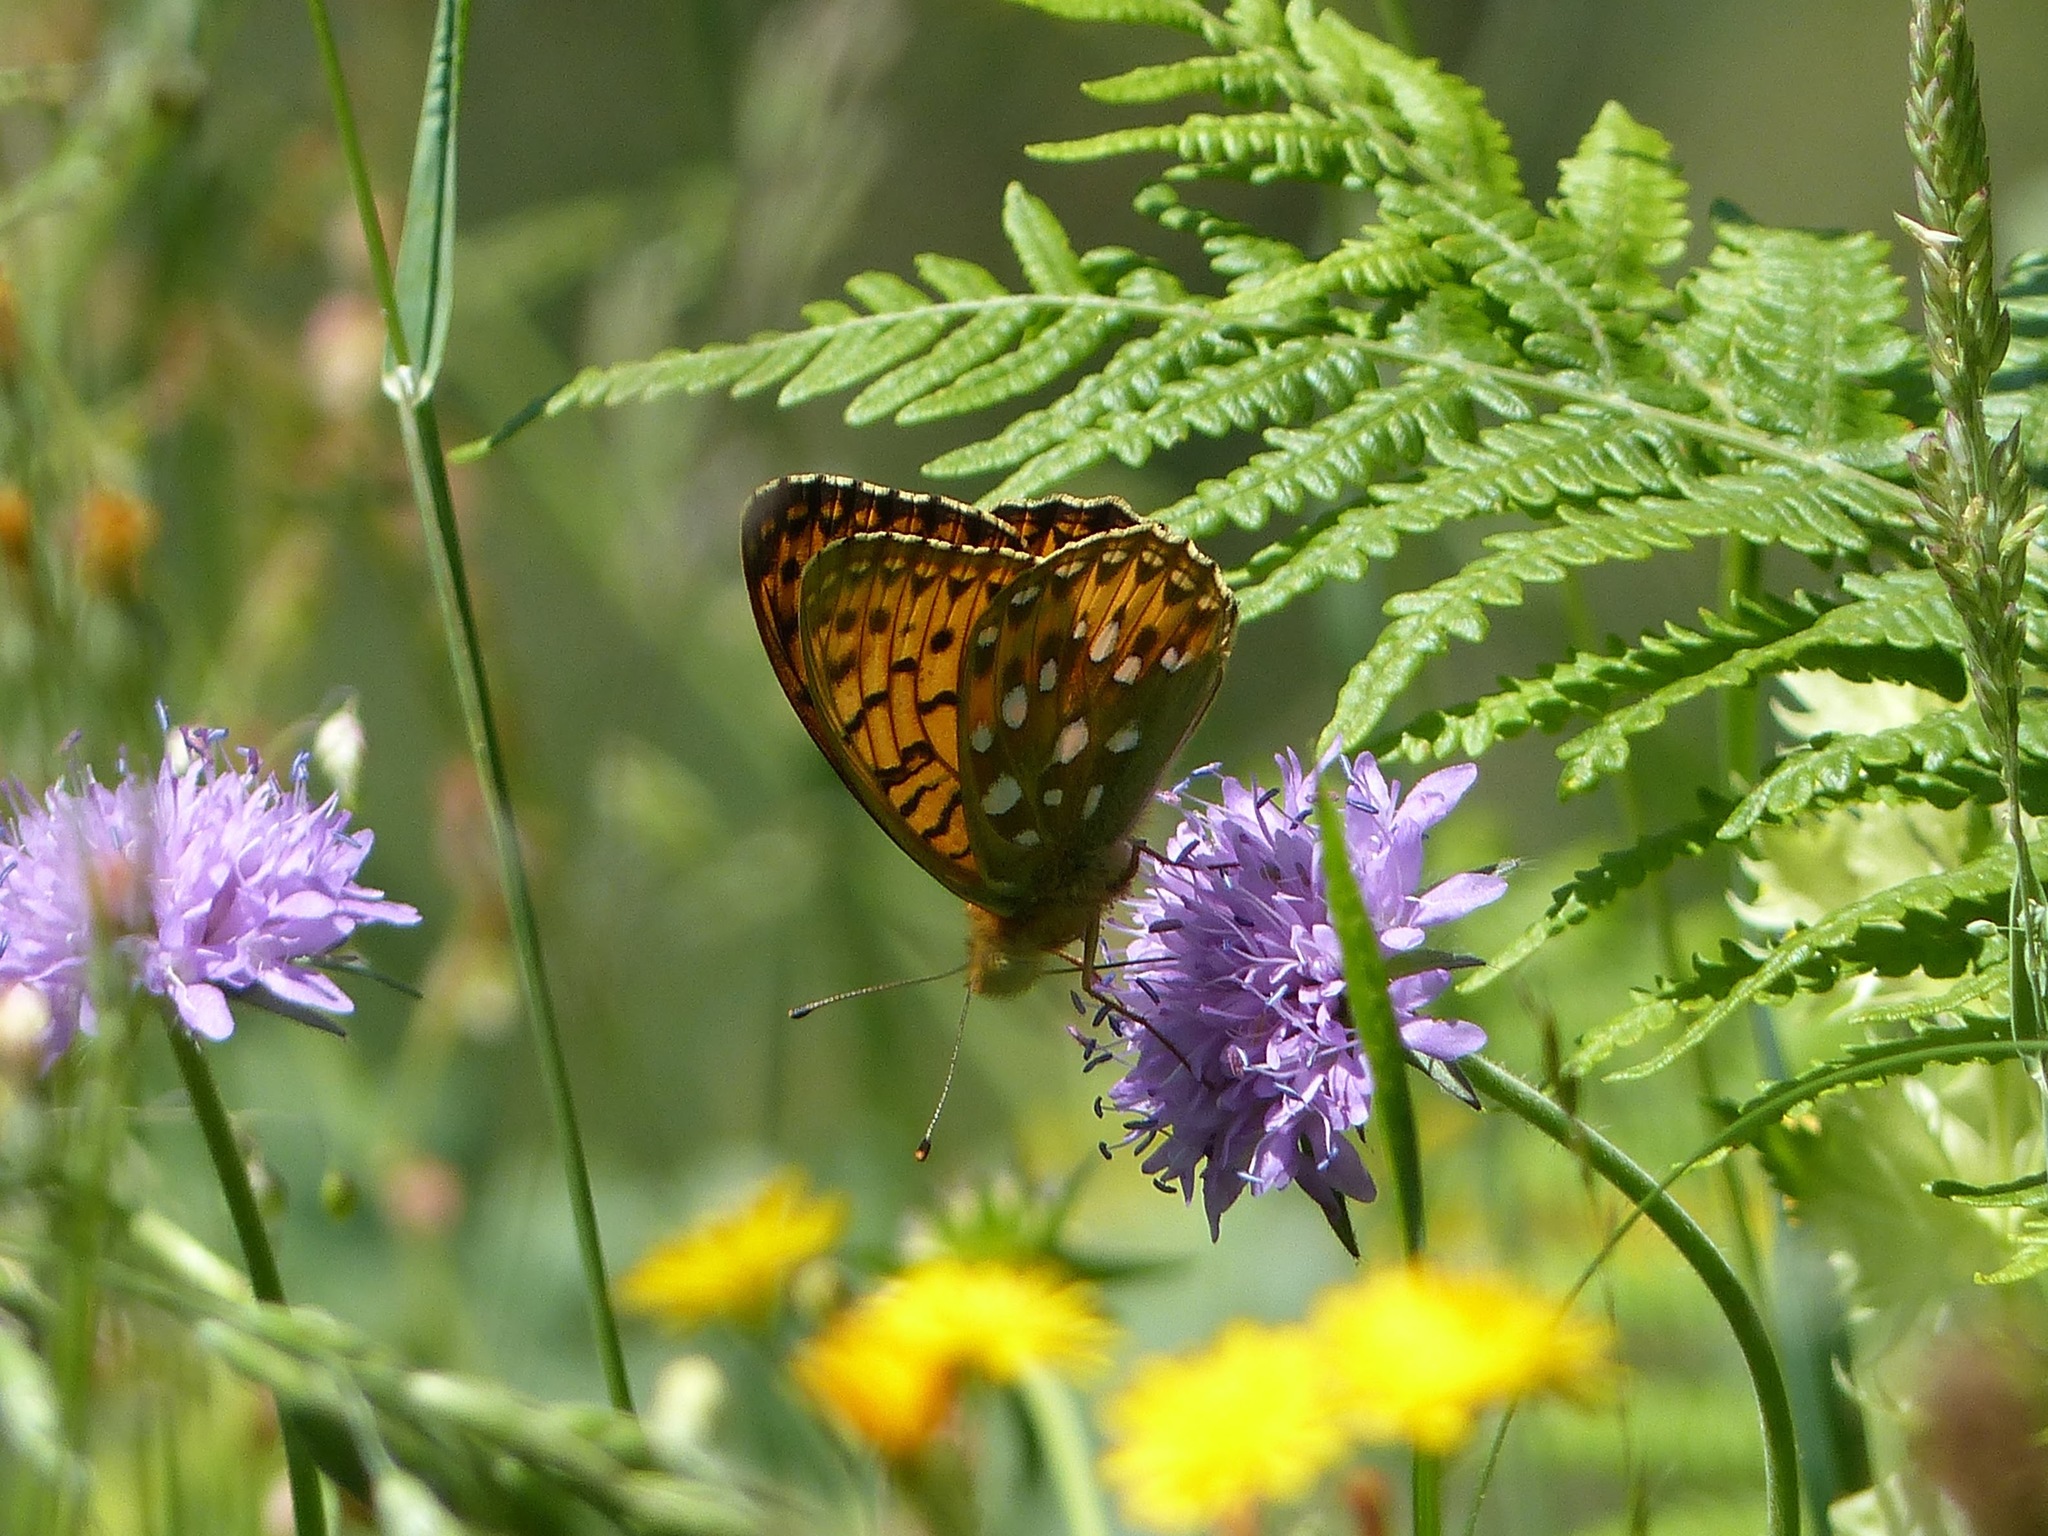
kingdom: Animalia
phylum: Arthropoda
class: Insecta
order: Lepidoptera
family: Nymphalidae
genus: Speyeria
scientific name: Speyeria aglaja
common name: Dark green fritillary
